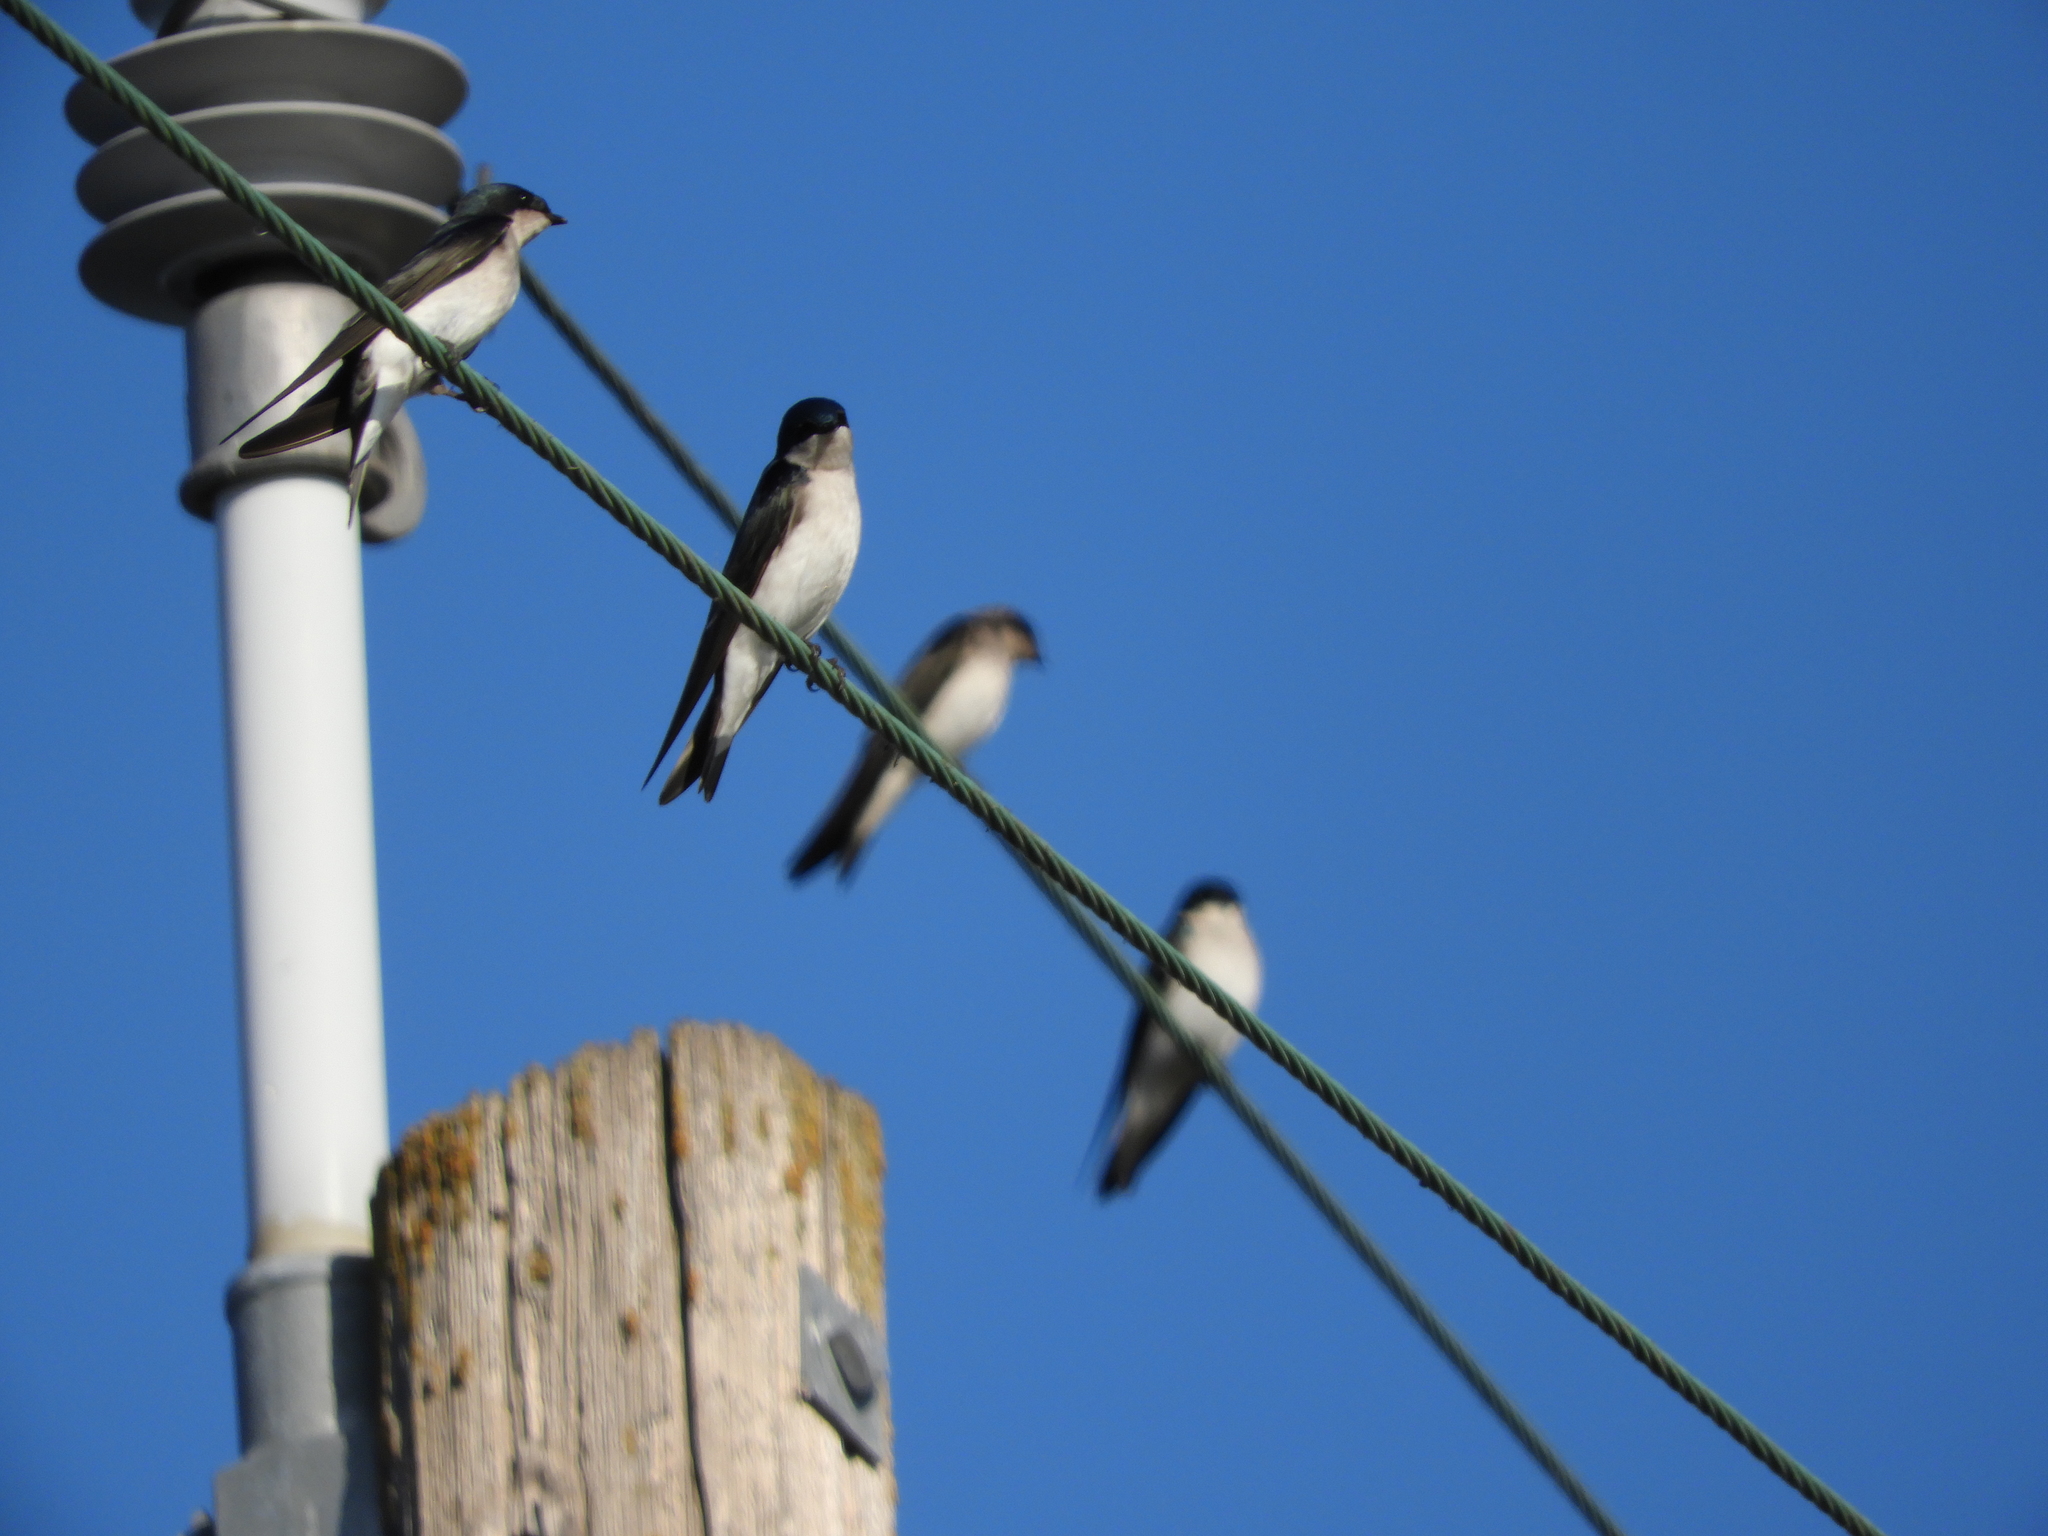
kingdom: Animalia
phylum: Chordata
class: Aves
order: Passeriformes
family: Hirundinidae
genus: Tachycineta
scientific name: Tachycineta bicolor
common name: Tree swallow
